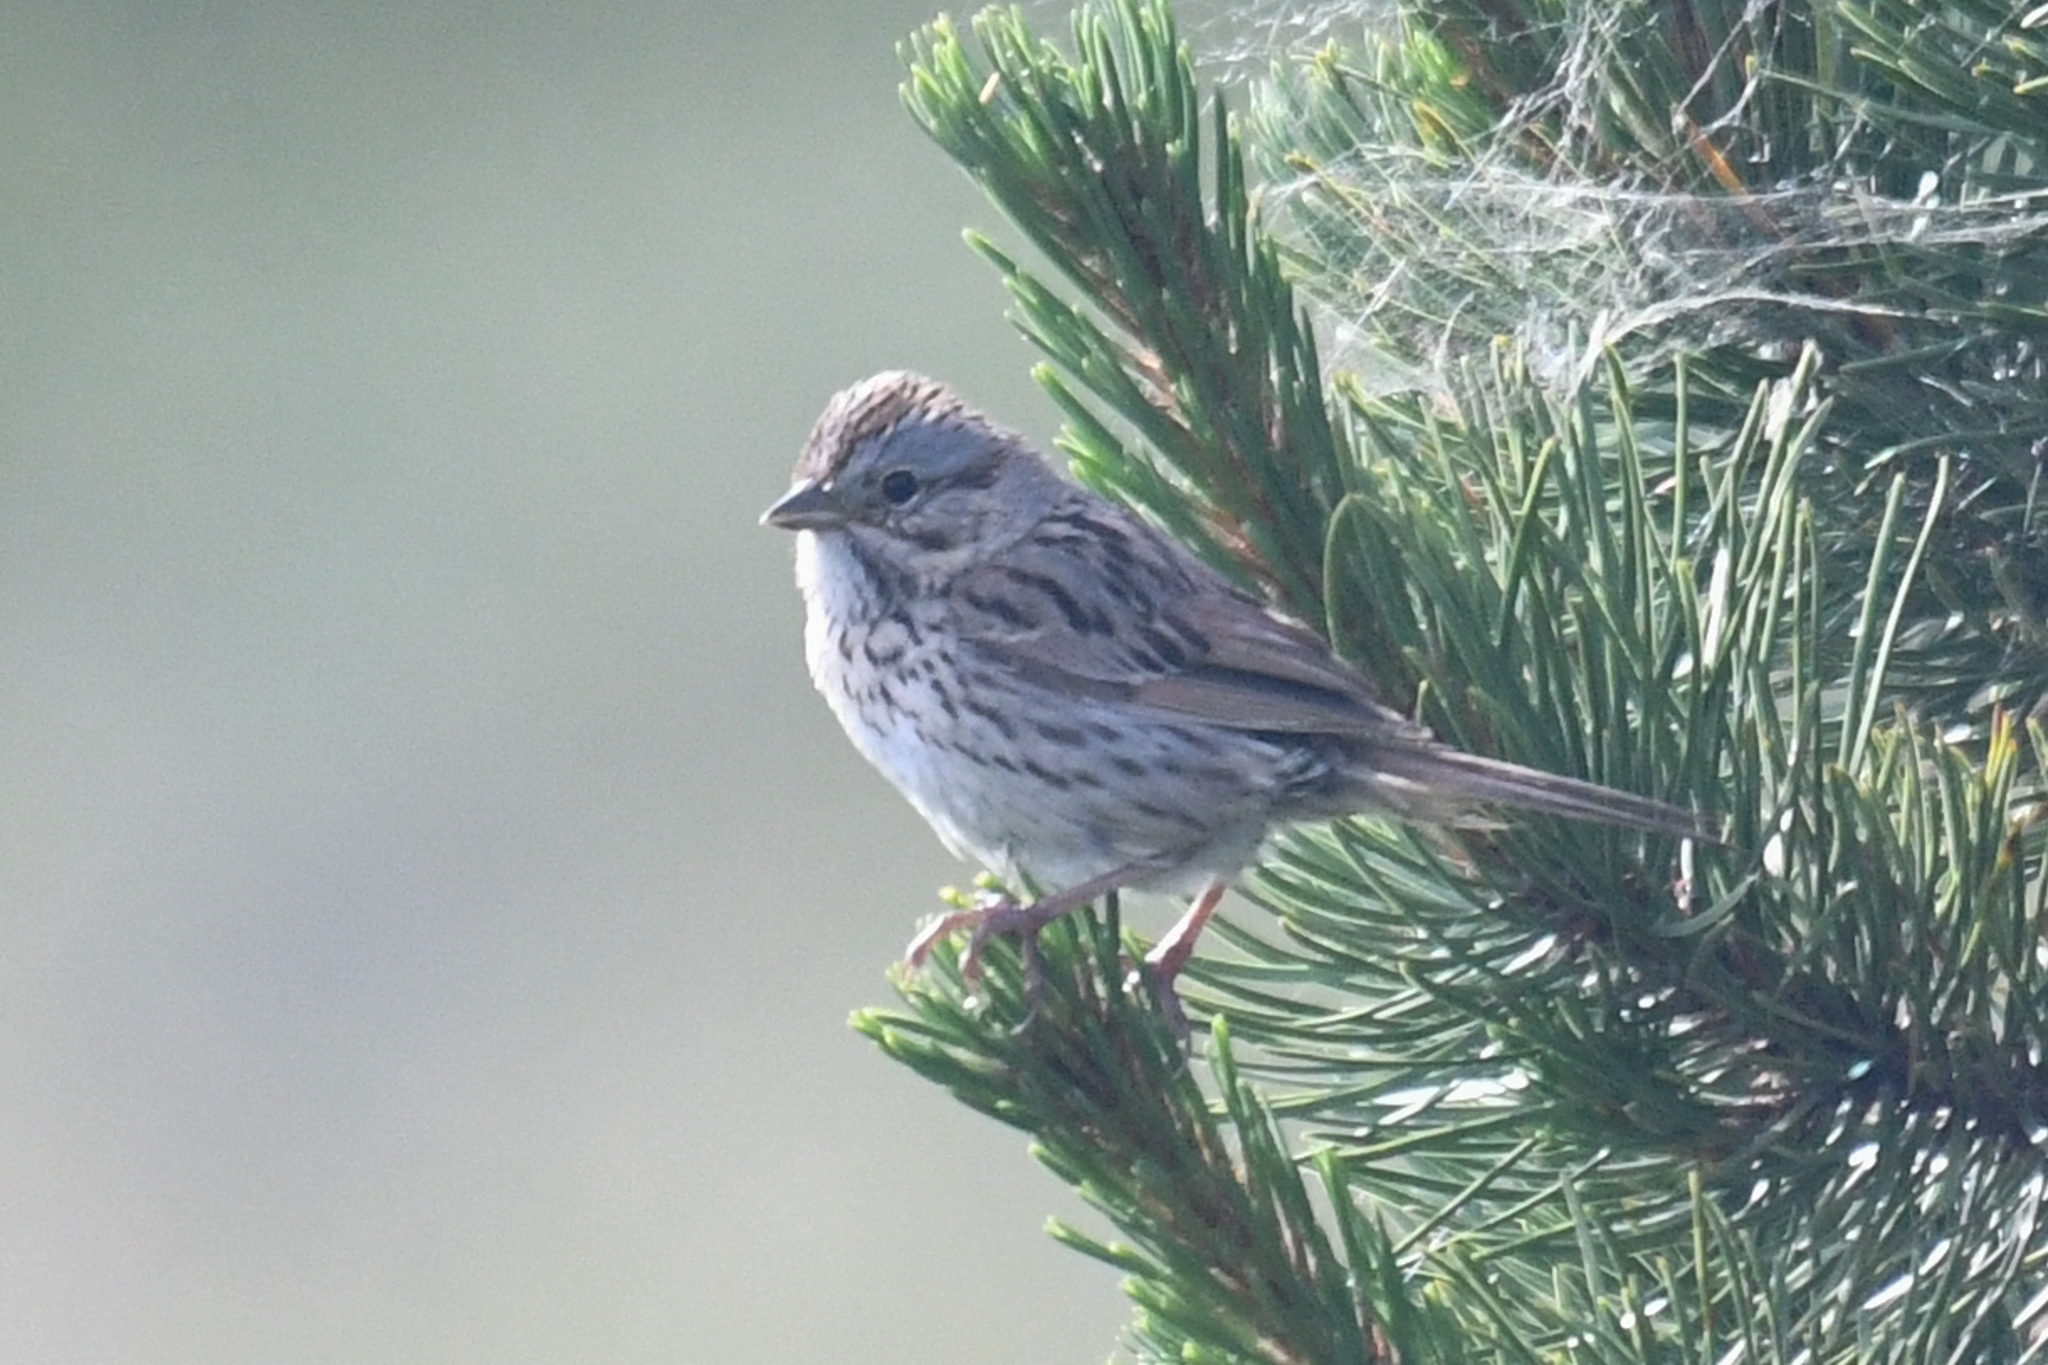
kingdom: Animalia
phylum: Chordata
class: Aves
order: Passeriformes
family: Passerellidae
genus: Melospiza
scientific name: Melospiza lincolnii
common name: Lincoln's sparrow
